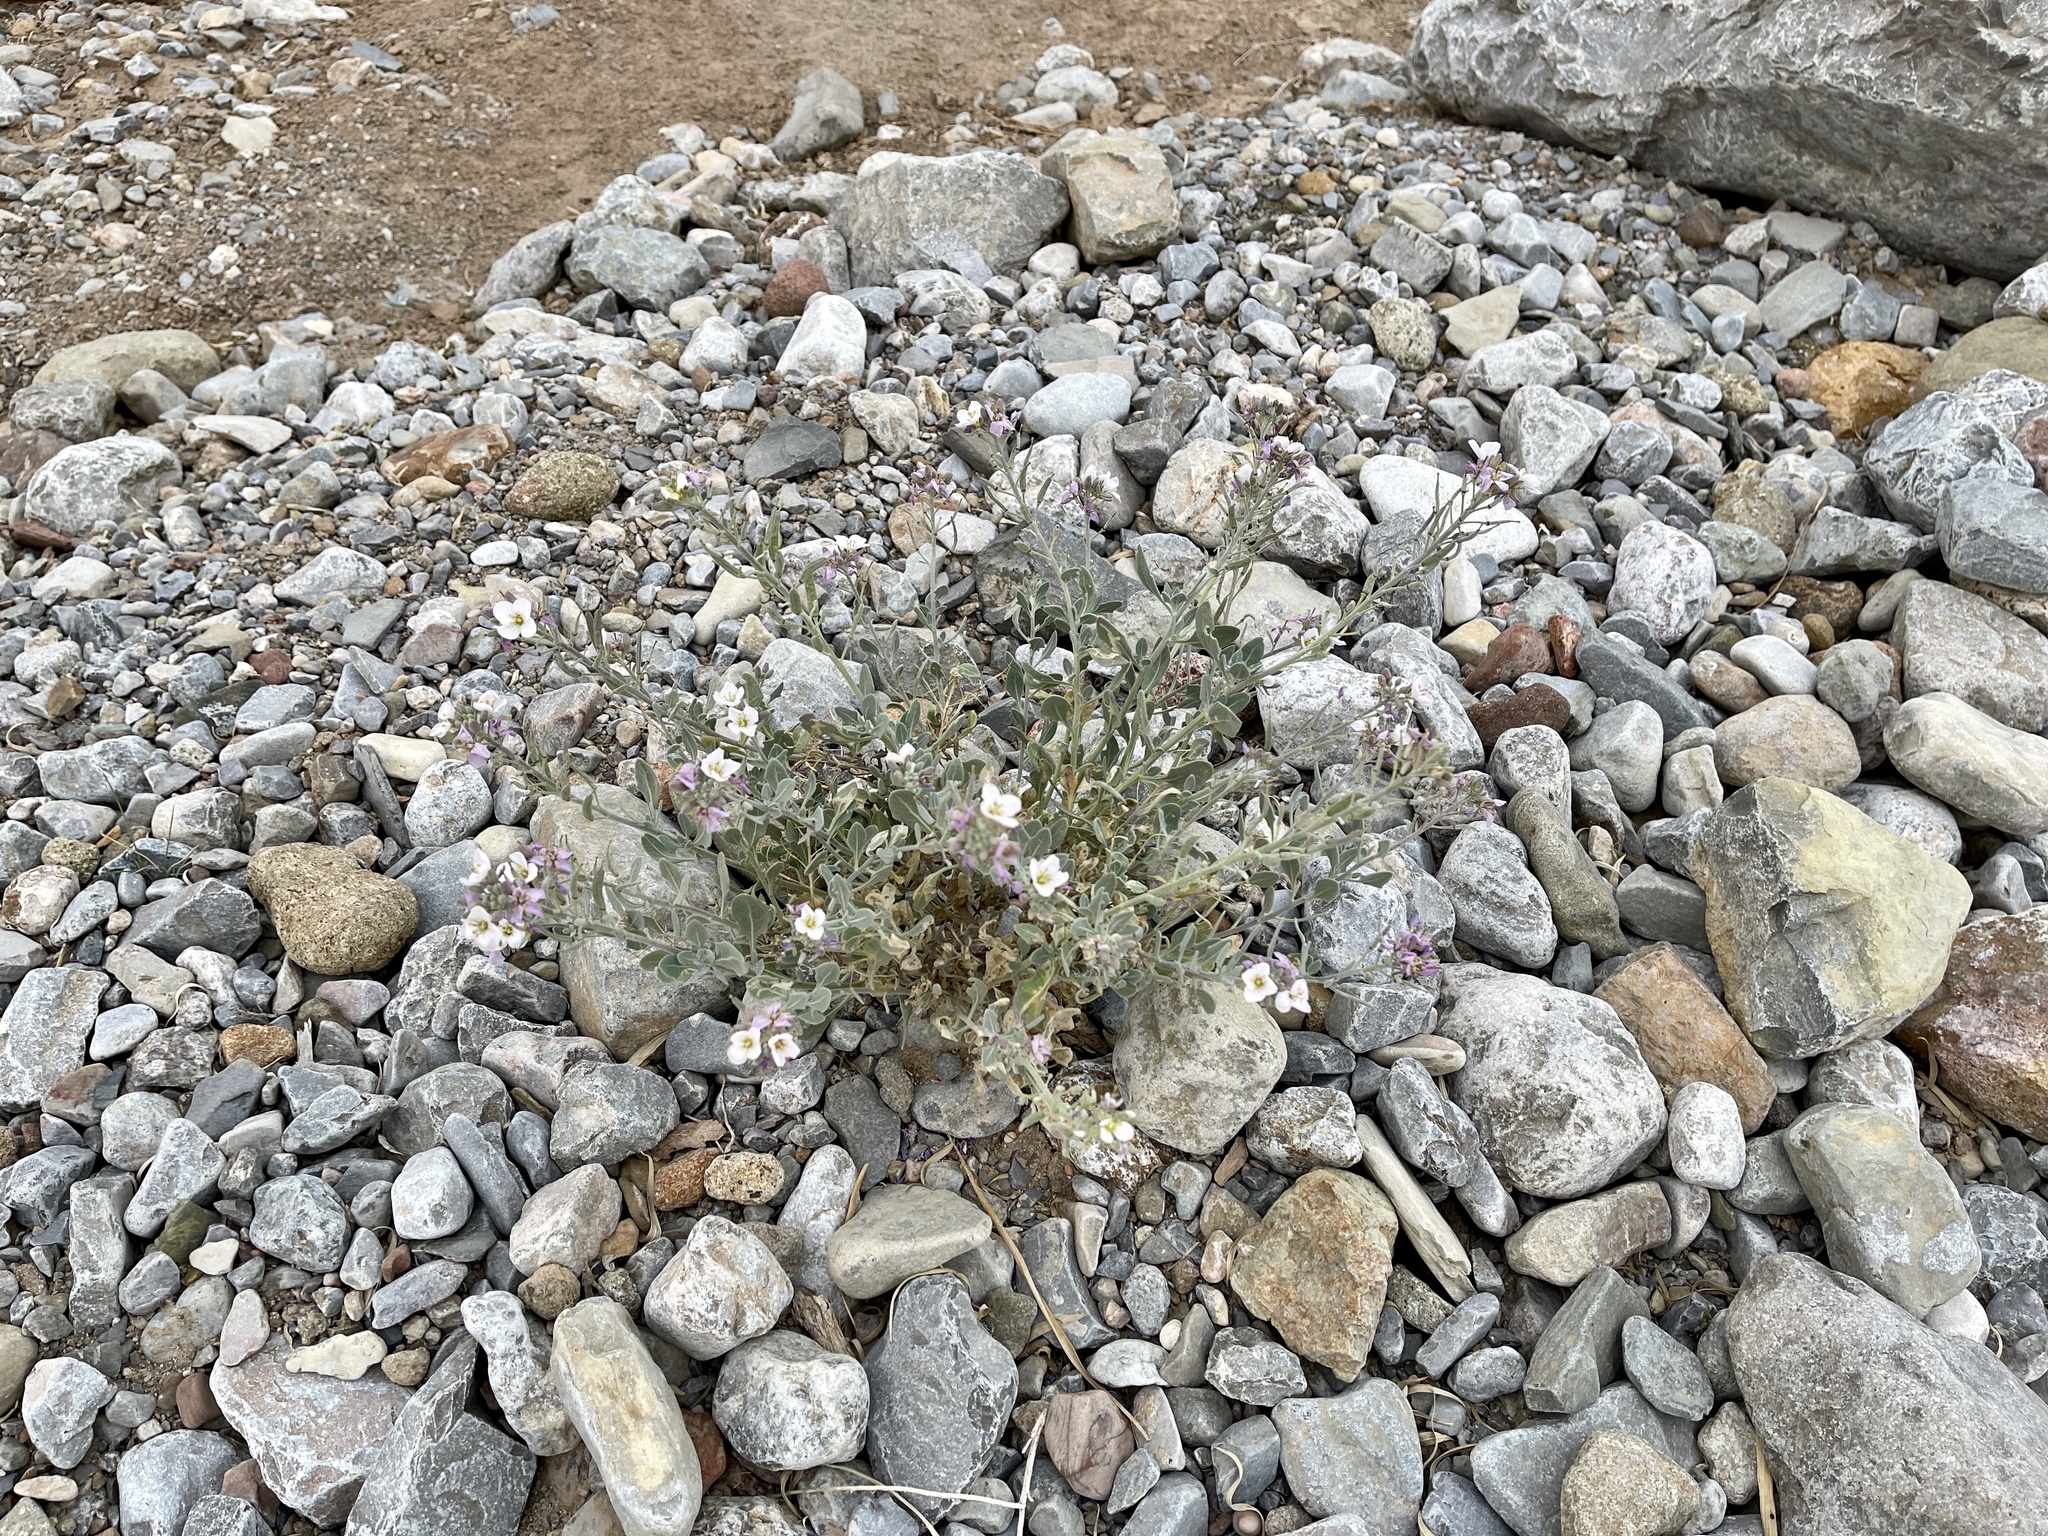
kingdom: Plantae
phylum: Tracheophyta
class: Magnoliopsida
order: Brassicales
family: Brassicaceae
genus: Nerisyrenia
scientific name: Nerisyrenia camporum
